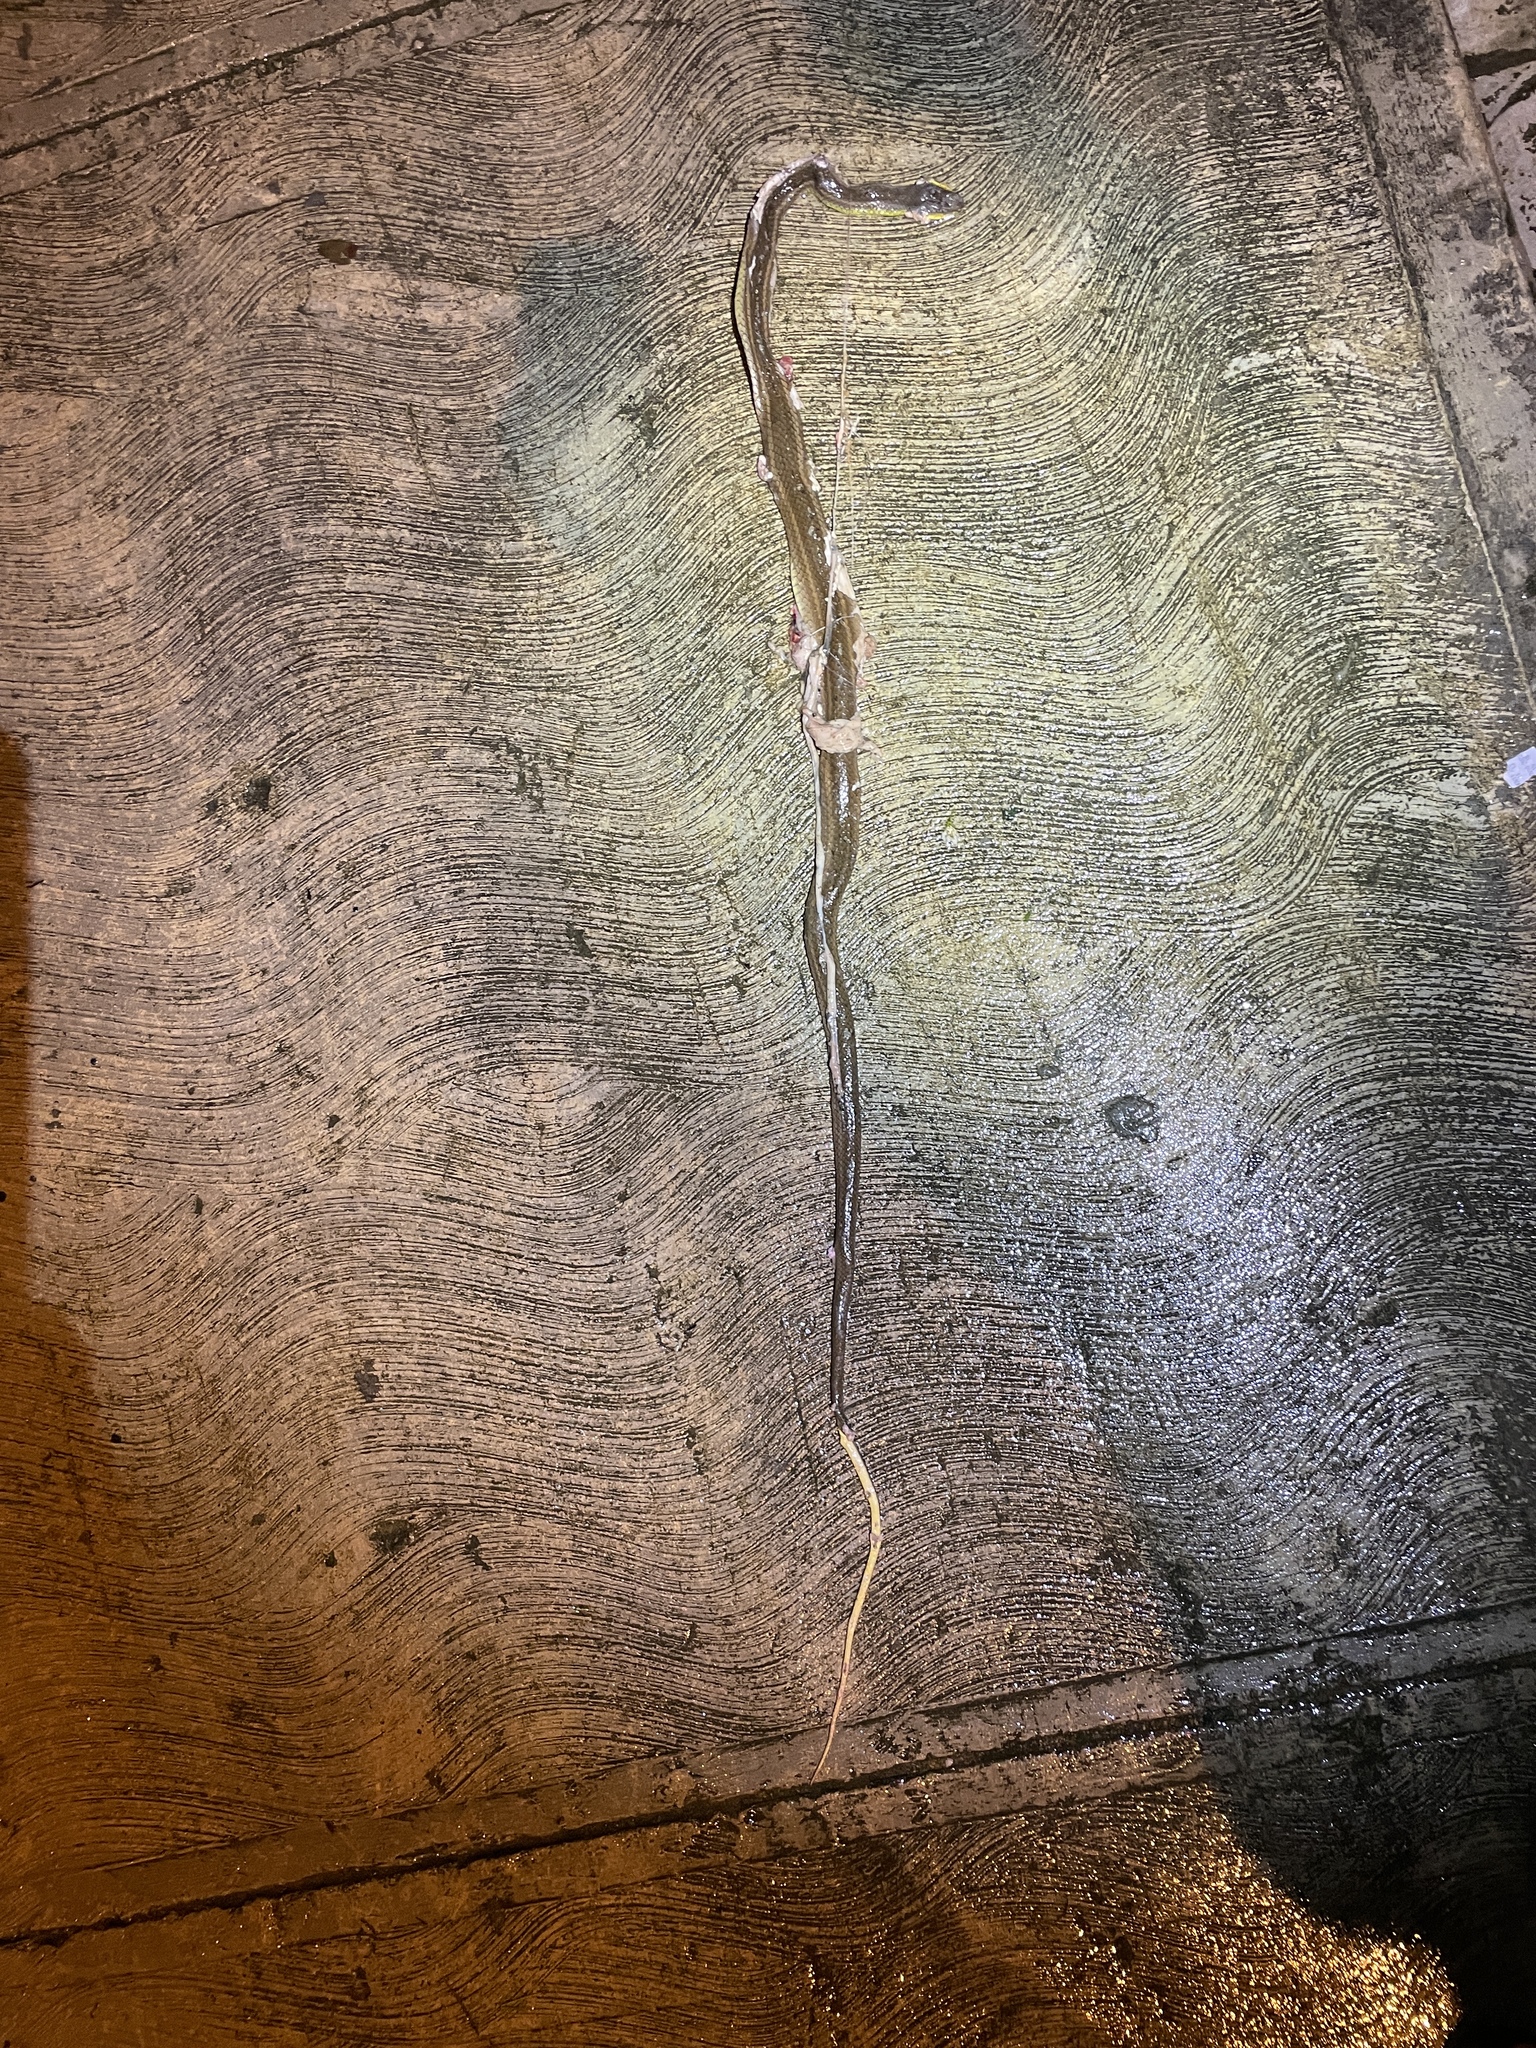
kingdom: Animalia
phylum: Chordata
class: Squamata
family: Colubridae
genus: Mastigodryas
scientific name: Mastigodryas boddaerti
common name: Boddaert's tropical racer
